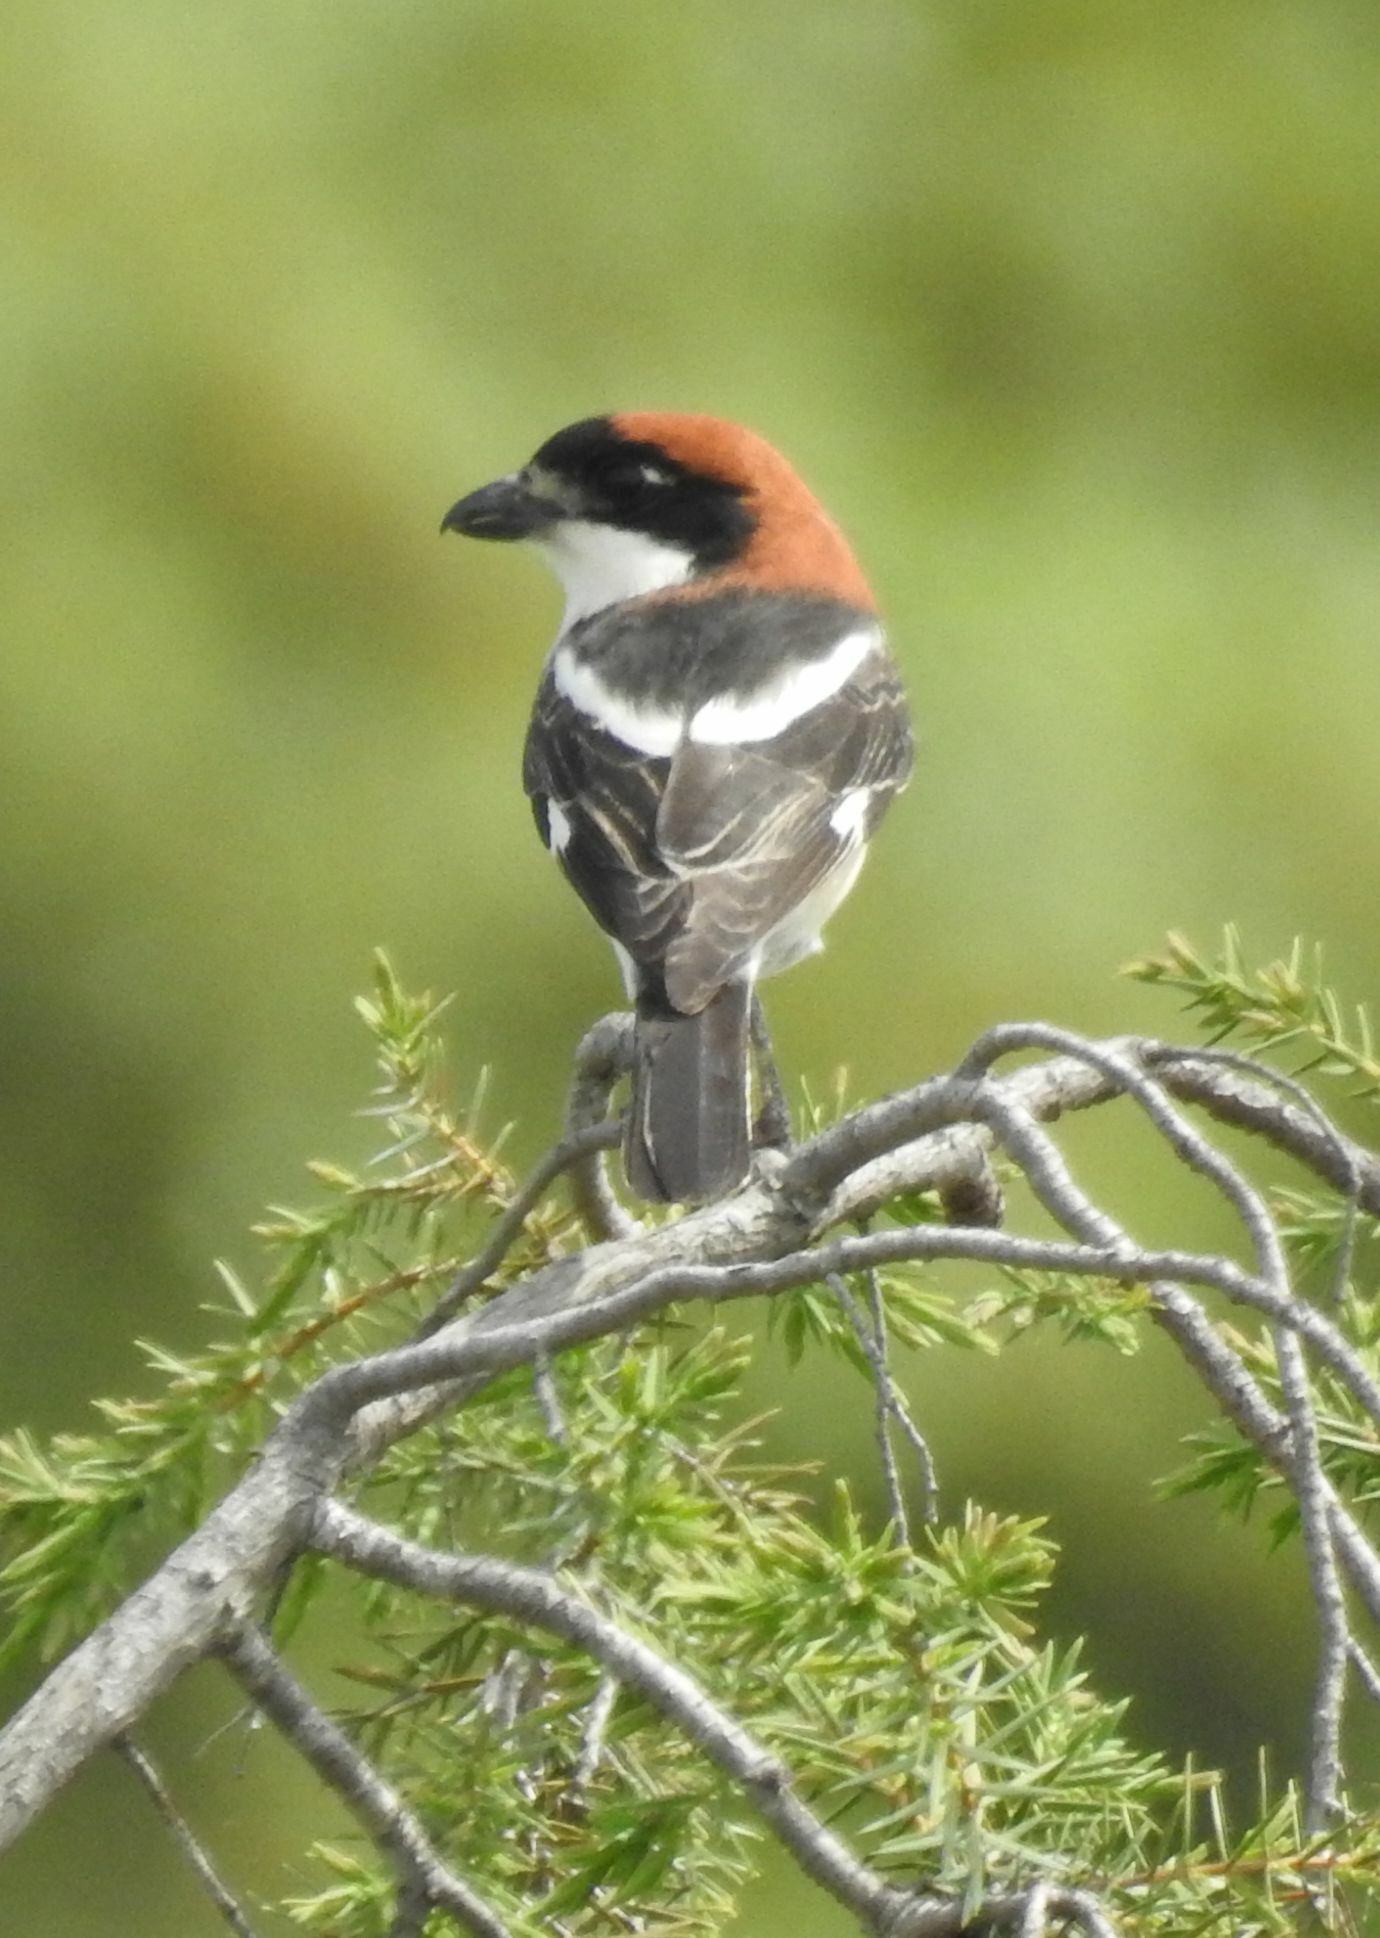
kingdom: Animalia
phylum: Chordata
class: Aves
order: Passeriformes
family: Laniidae
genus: Lanius
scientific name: Lanius senator
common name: Woodchat shrike
